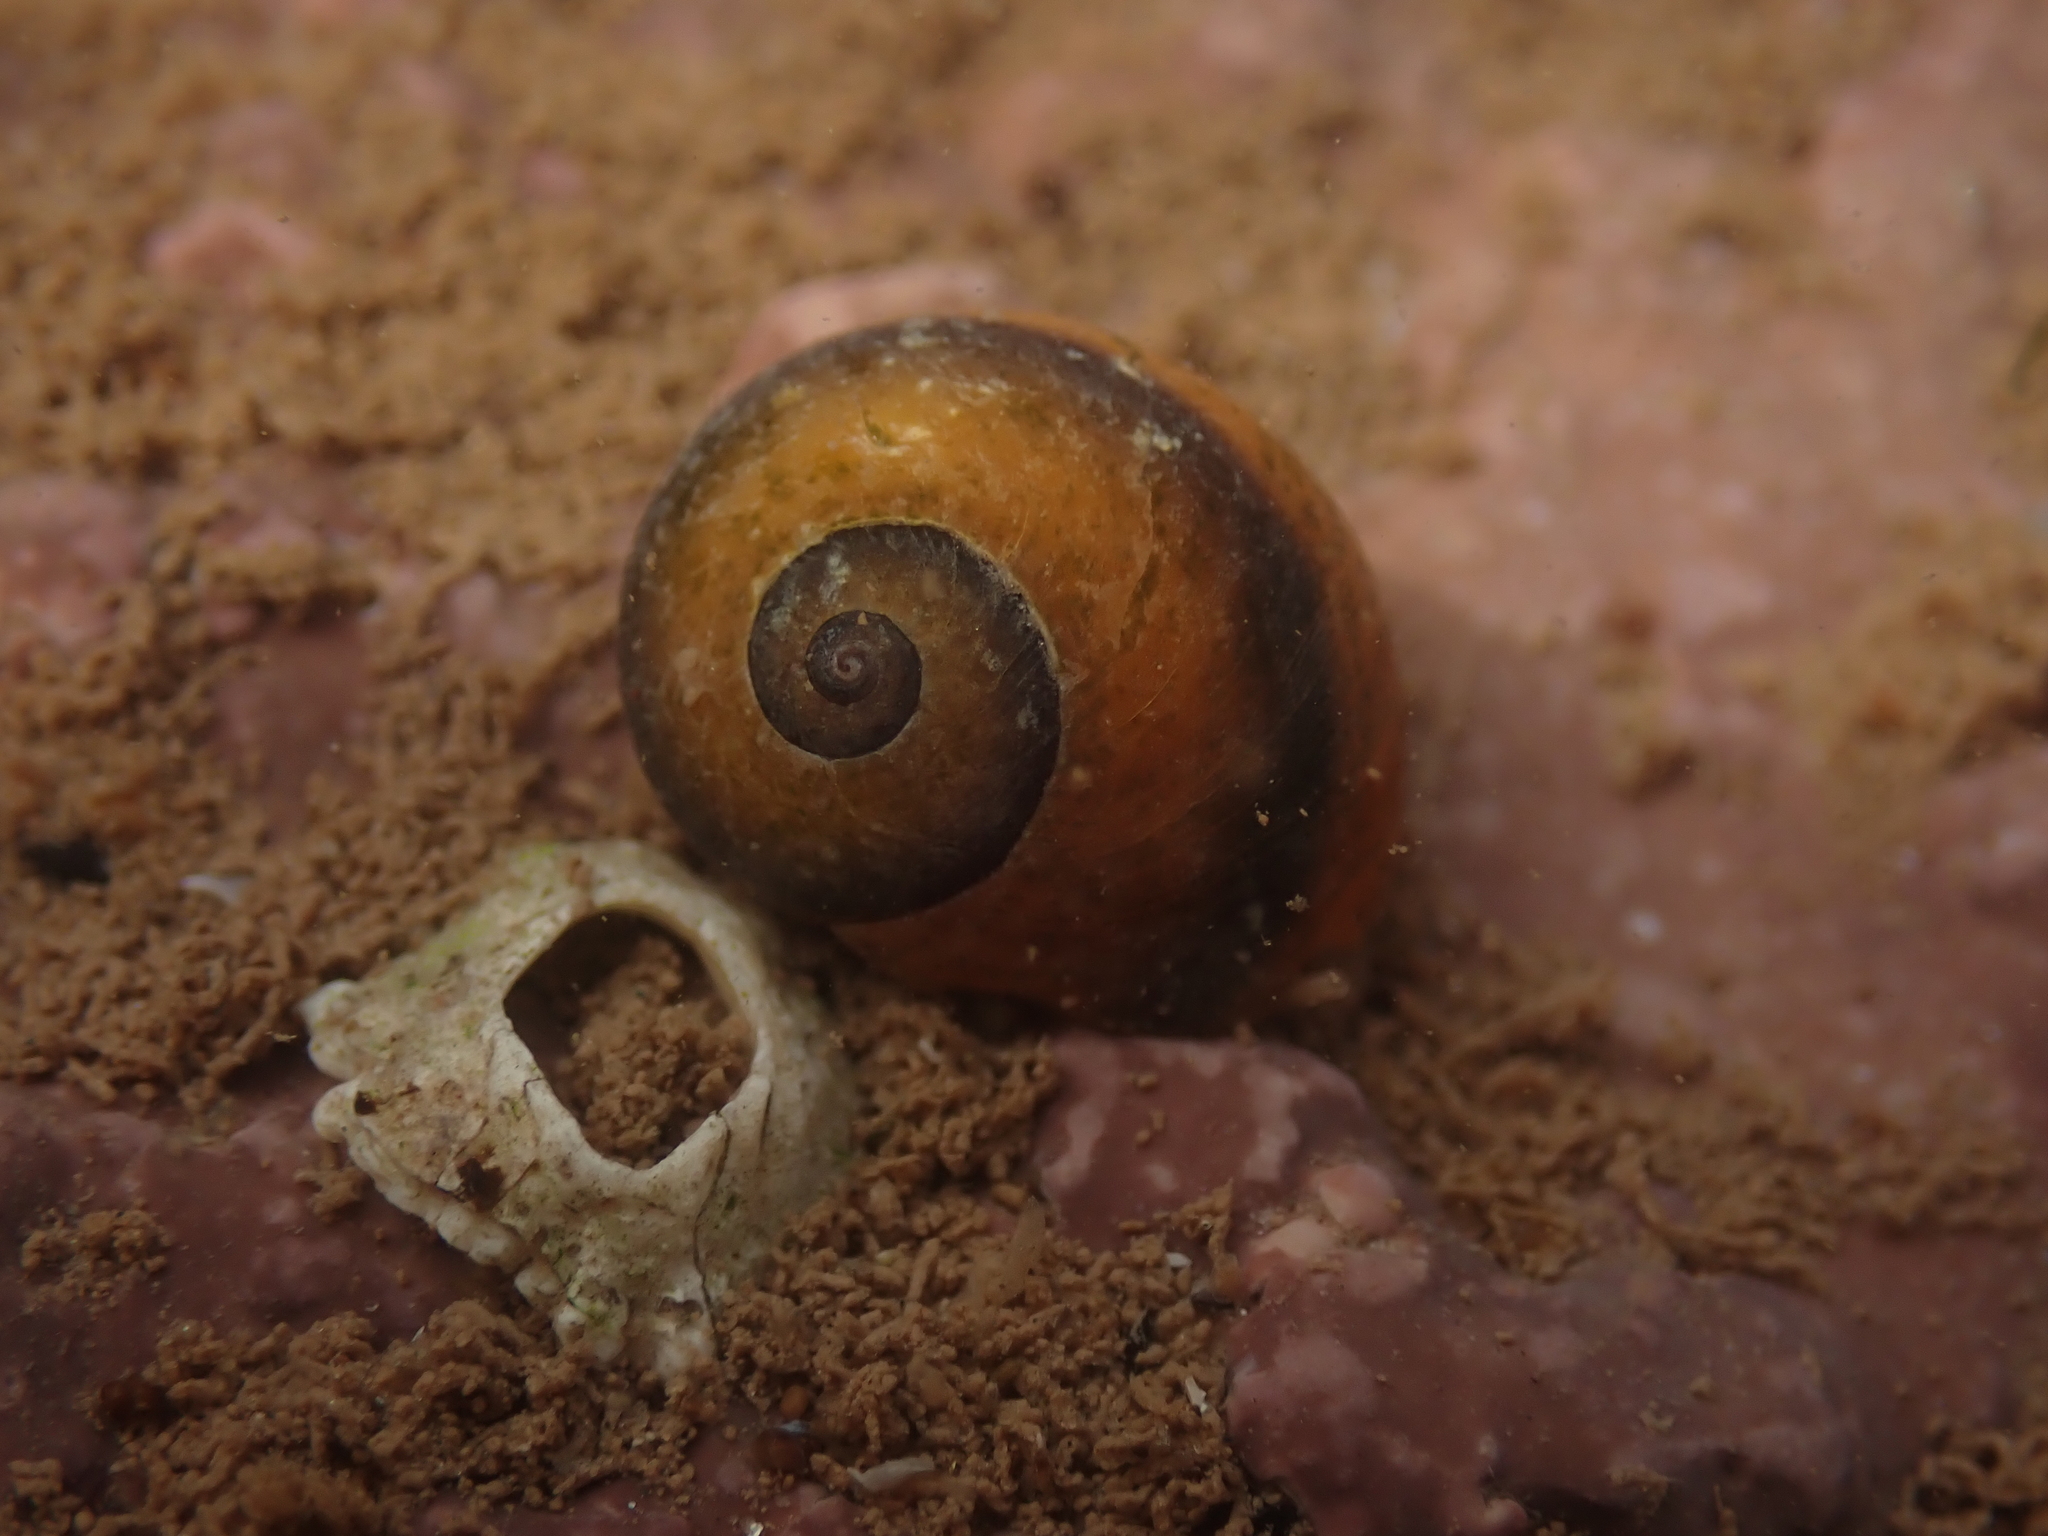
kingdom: Animalia
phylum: Mollusca
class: Gastropoda
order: Littorinimorpha
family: Littorinidae
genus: Littorina
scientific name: Littorina obtusata
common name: Flat periwinkle
